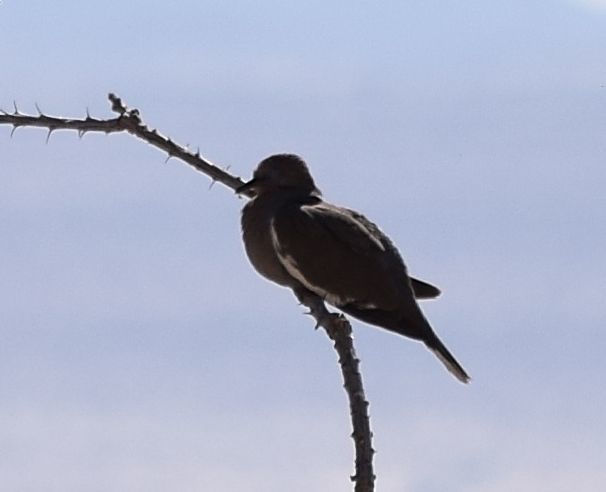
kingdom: Animalia
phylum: Chordata
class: Aves
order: Columbiformes
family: Columbidae
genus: Zenaida
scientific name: Zenaida asiatica
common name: White-winged dove
